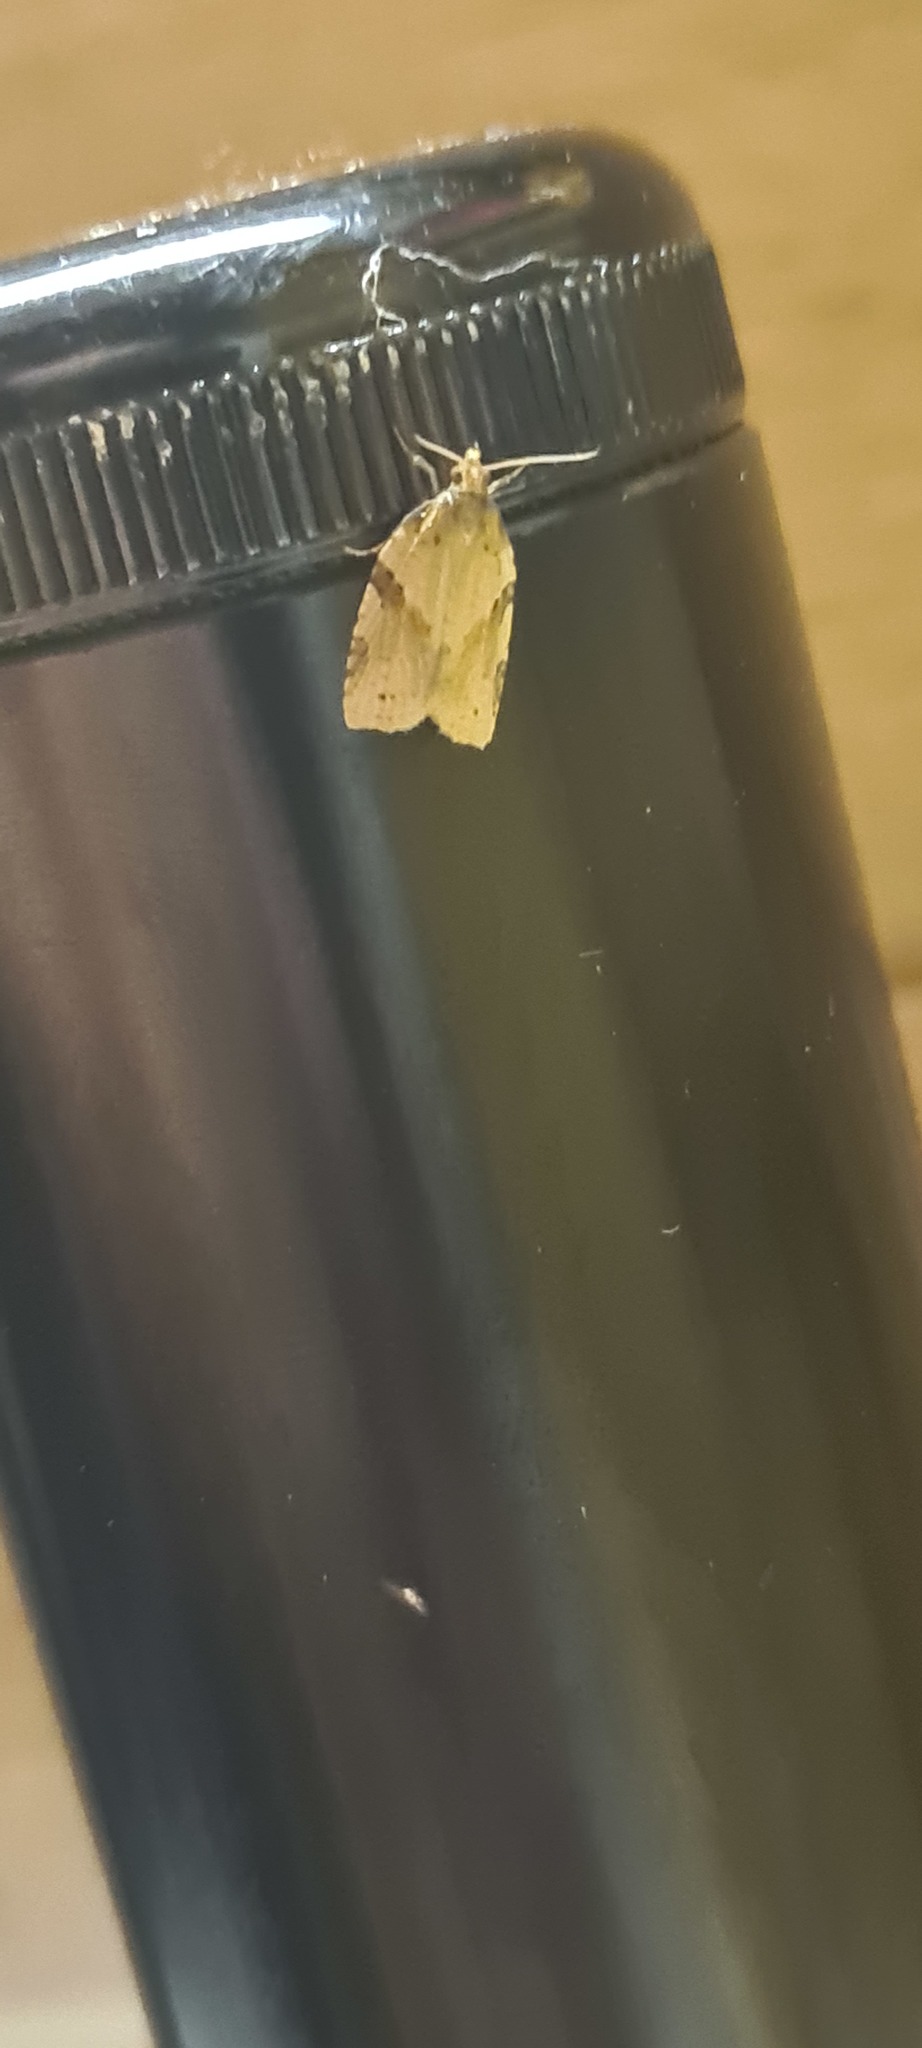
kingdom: Animalia
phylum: Arthropoda
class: Insecta
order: Lepidoptera
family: Tortricidae
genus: Clepsis
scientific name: Clepsis spectrana
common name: Cyclamen tortrix
